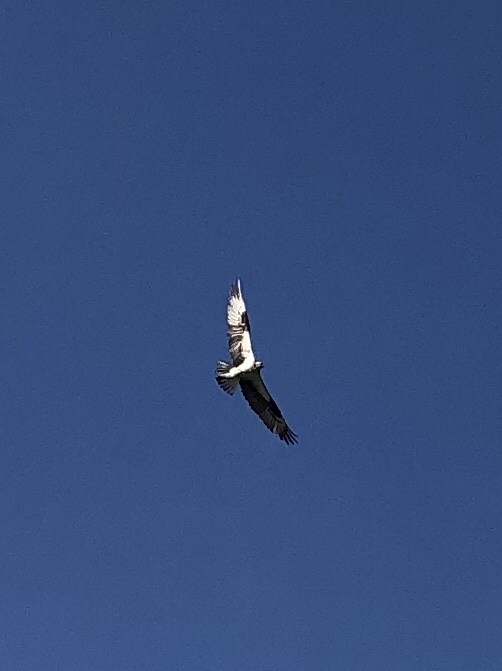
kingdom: Animalia
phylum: Chordata
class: Aves
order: Accipitriformes
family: Pandionidae
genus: Pandion
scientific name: Pandion haliaetus
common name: Osprey
